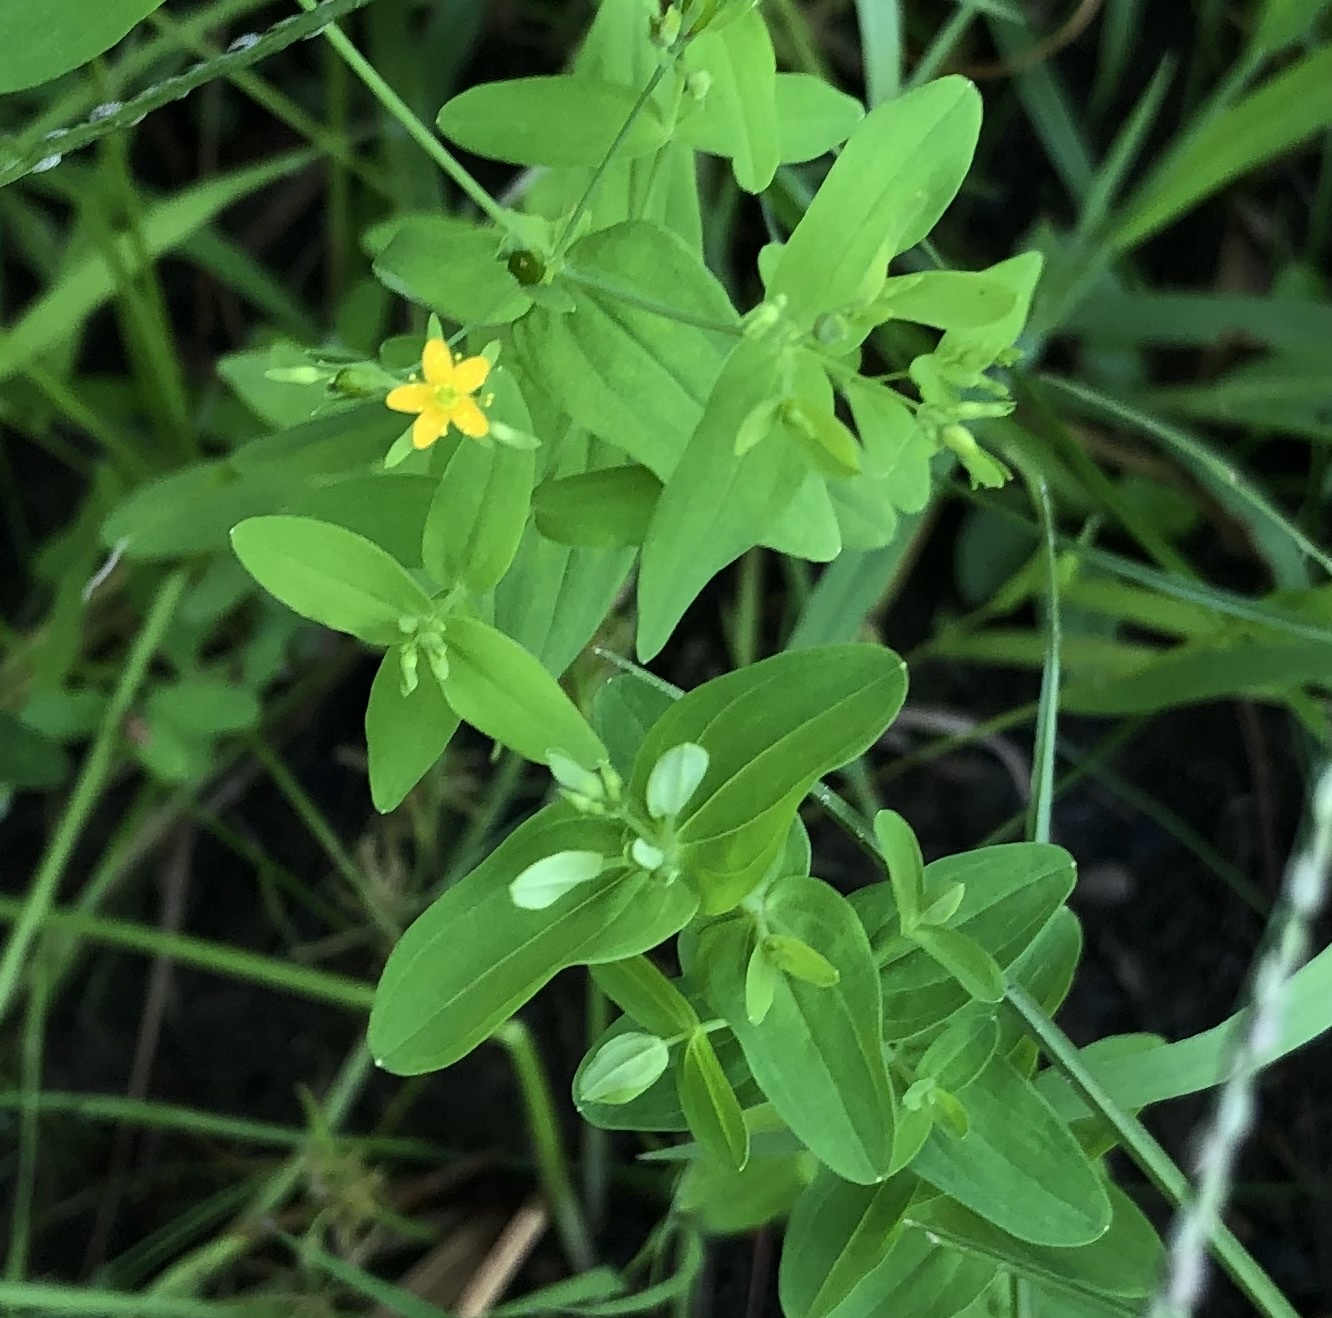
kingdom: Plantae
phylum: Tracheophyta
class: Magnoliopsida
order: Malpighiales
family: Hypericaceae
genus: Hypericum
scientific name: Hypericum mutilum
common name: Dwarf st. john's-wort
